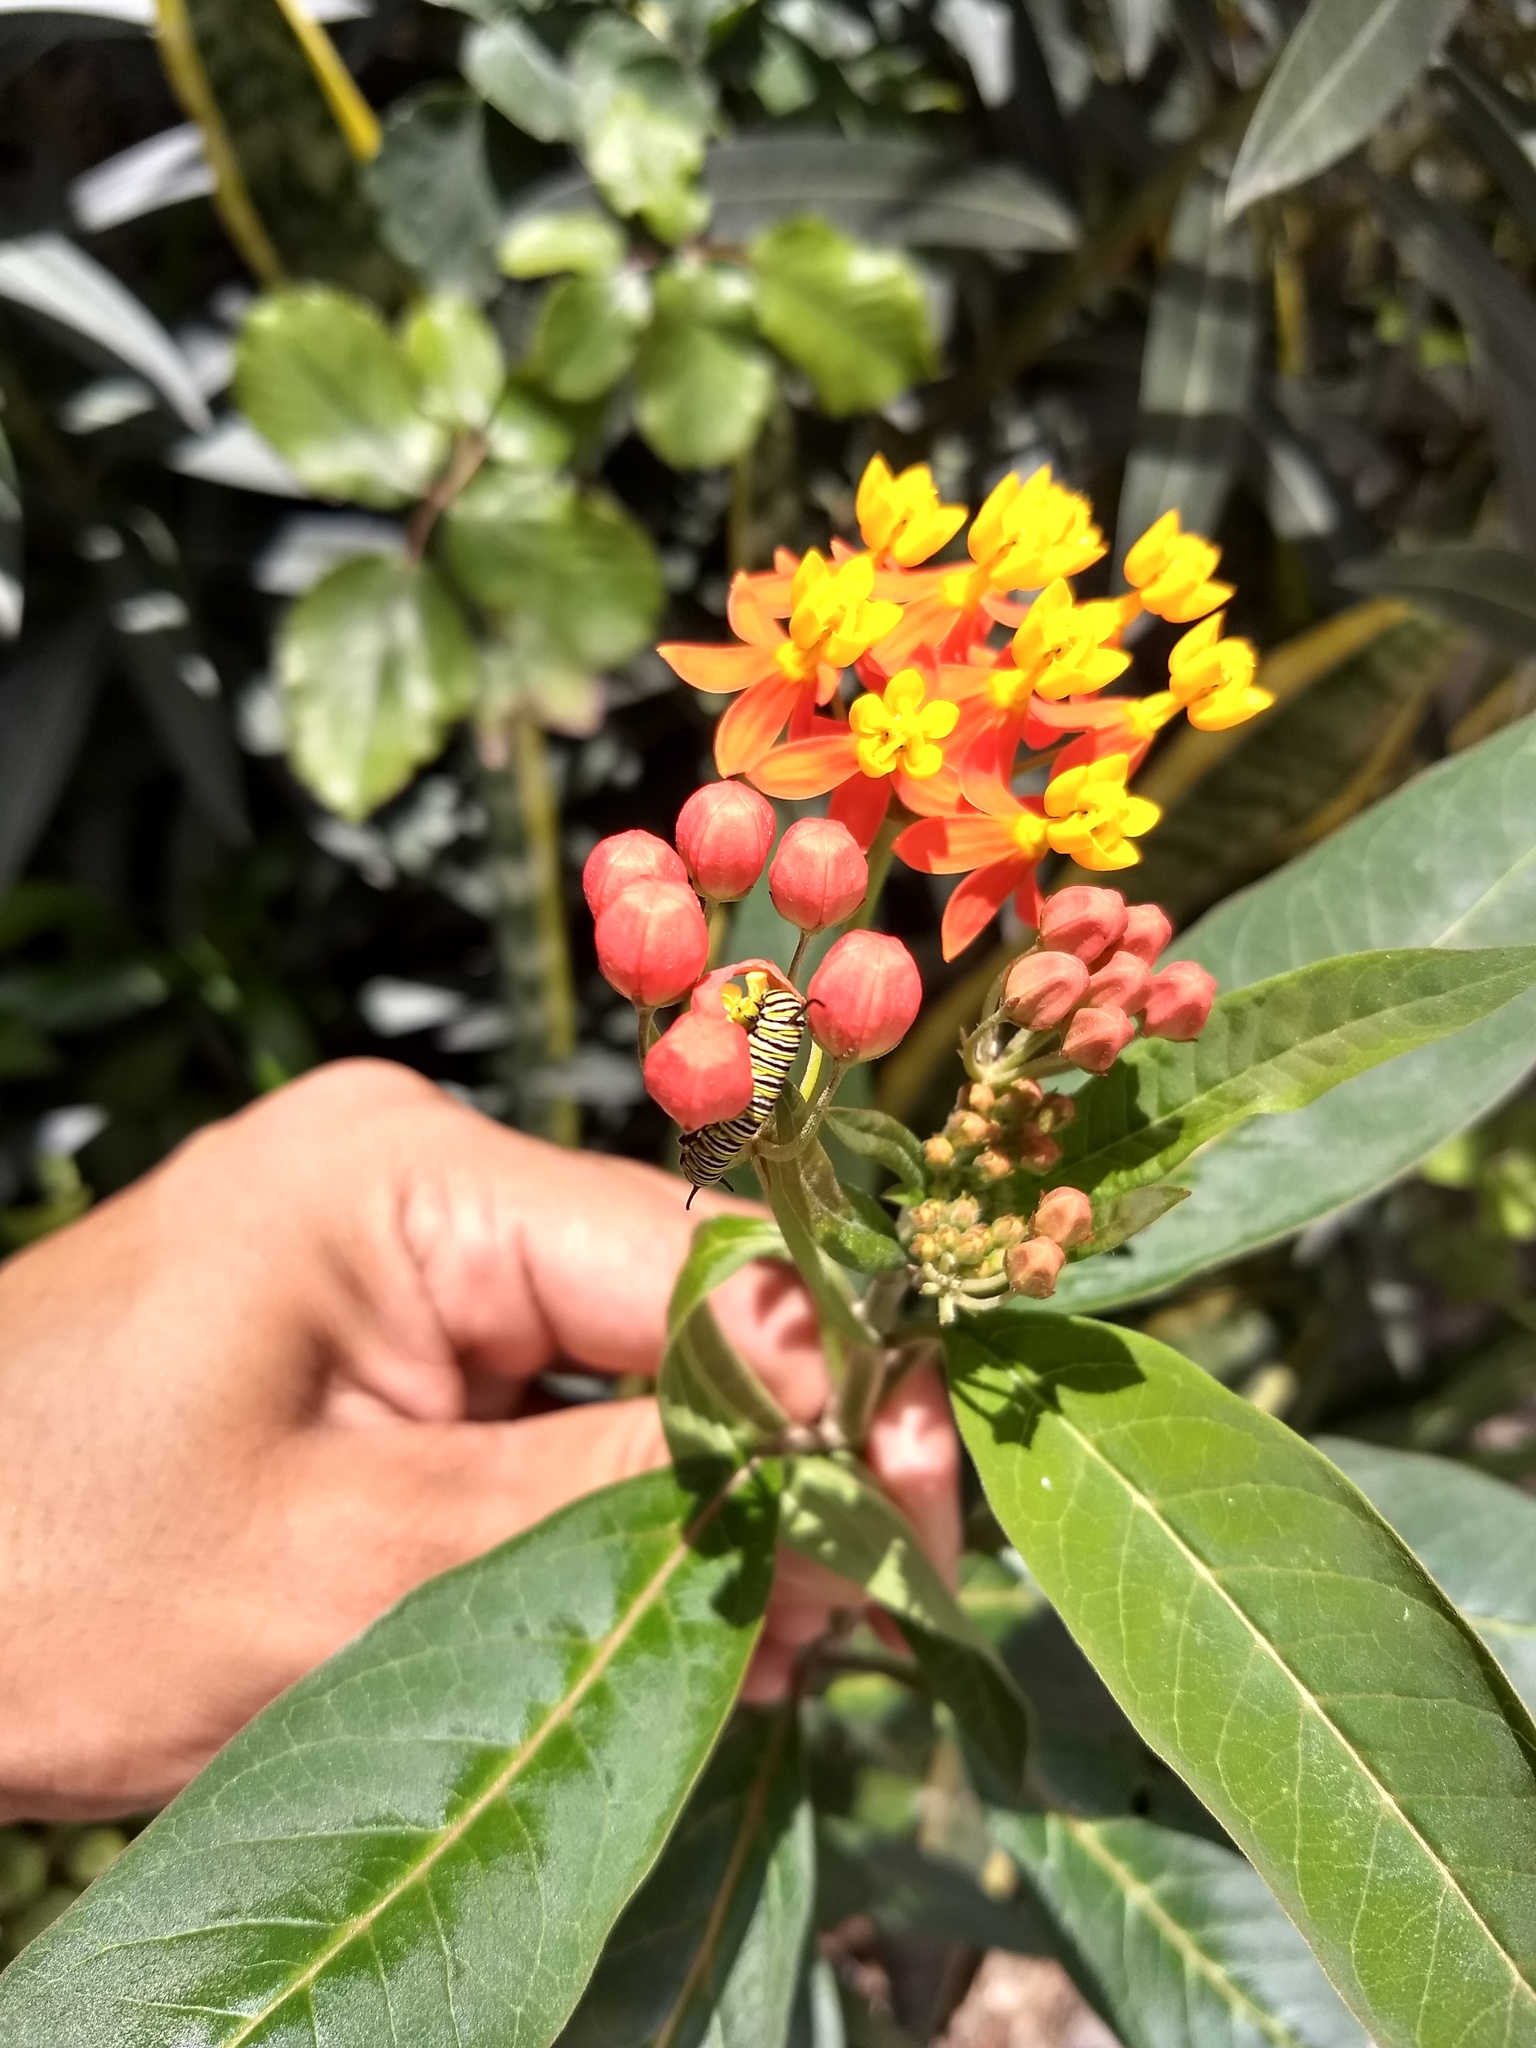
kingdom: Animalia
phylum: Arthropoda
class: Insecta
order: Lepidoptera
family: Nymphalidae
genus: Danaus
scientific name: Danaus plexippus
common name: Monarch
